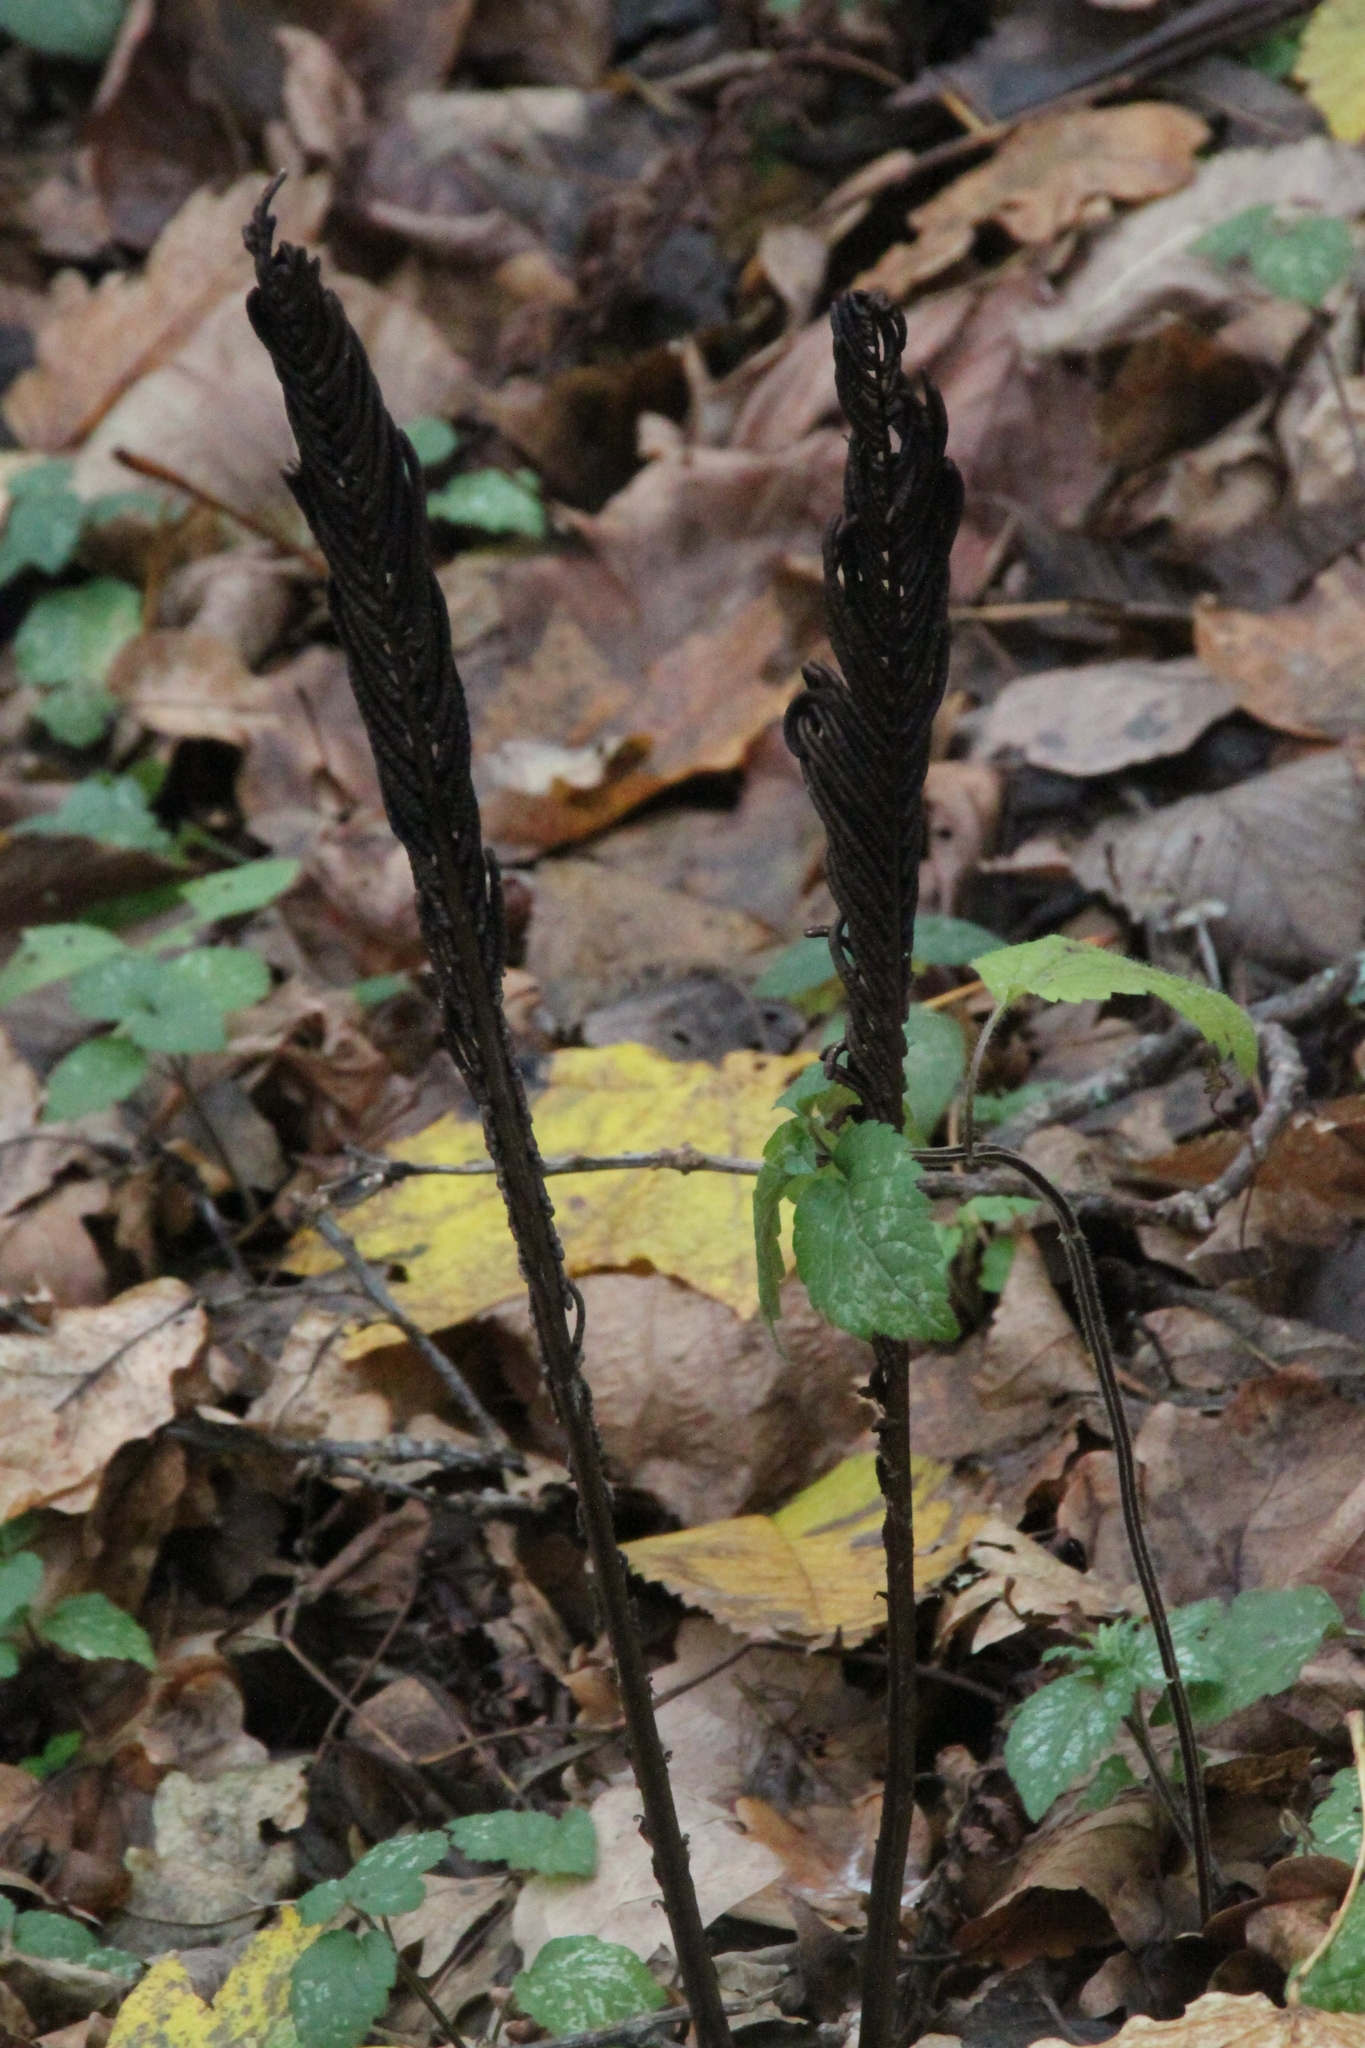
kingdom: Plantae
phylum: Tracheophyta
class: Polypodiopsida
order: Polypodiales
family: Onocleaceae
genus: Matteuccia
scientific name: Matteuccia struthiopteris
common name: Ostrich fern
